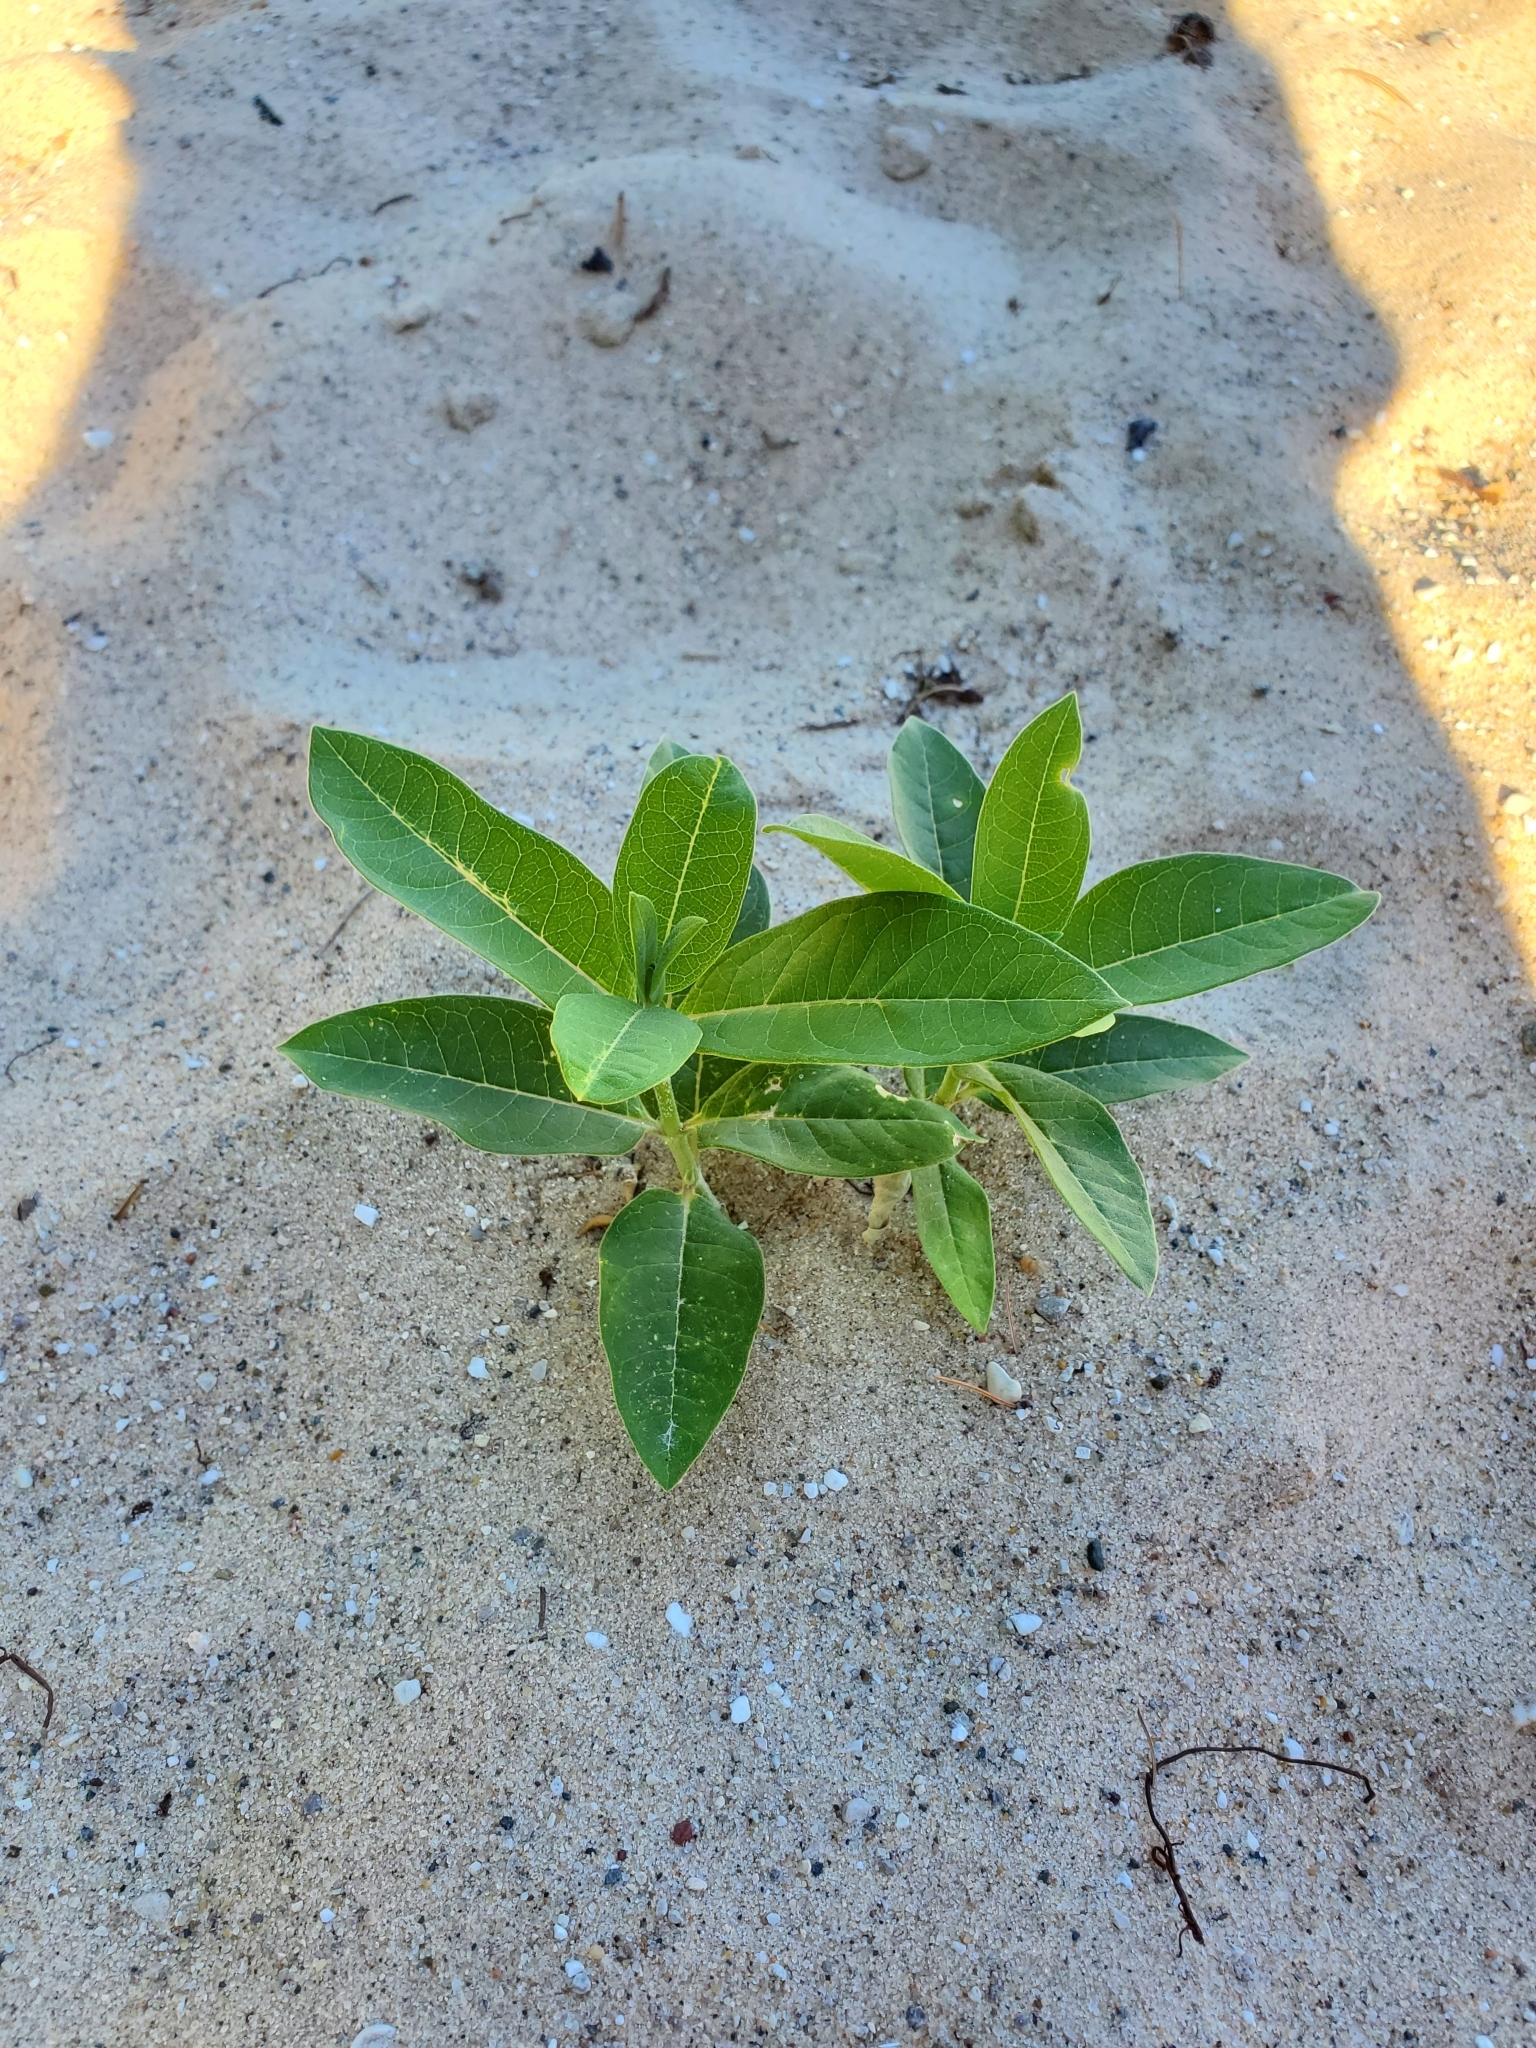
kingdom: Plantae
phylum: Tracheophyta
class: Magnoliopsida
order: Gentianales
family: Apocynaceae
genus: Asclepias
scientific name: Asclepias syriaca
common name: Common milkweed
